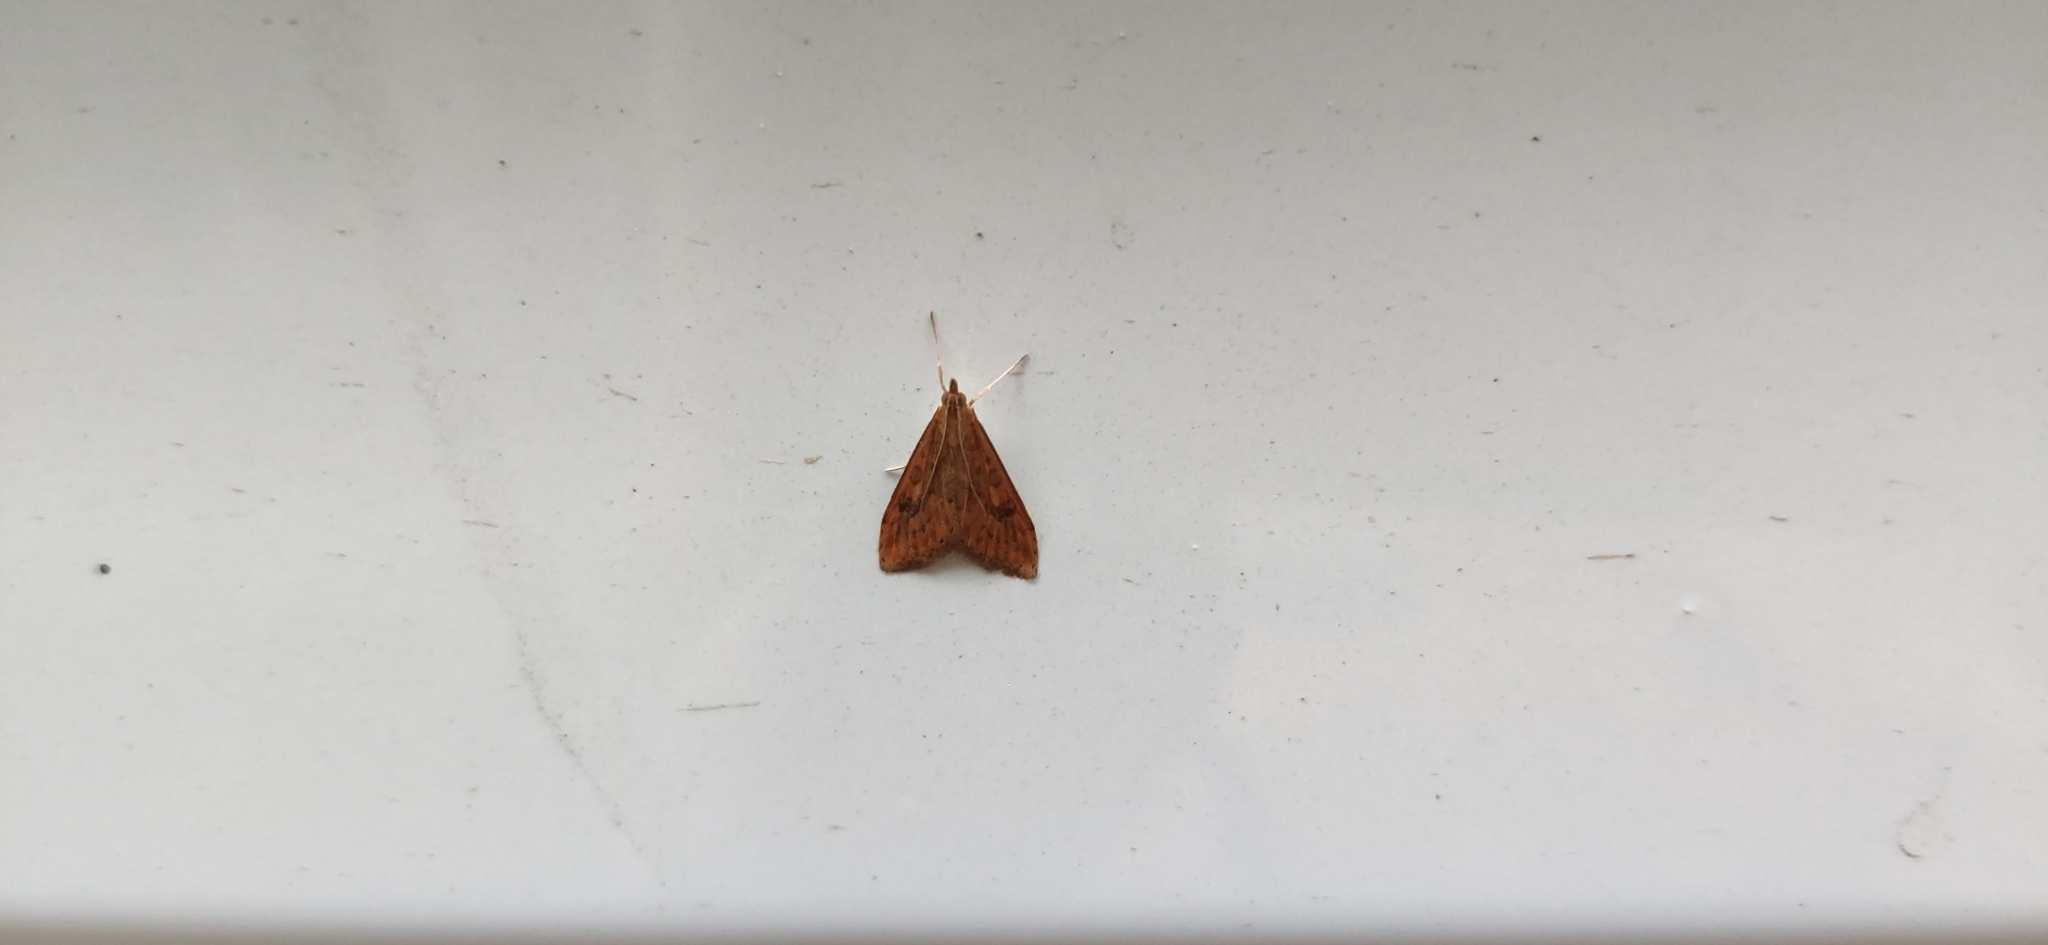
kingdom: Animalia
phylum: Arthropoda
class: Insecta
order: Lepidoptera
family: Crambidae
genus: Udea
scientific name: Udea ferrugalis
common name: Rusty dot
